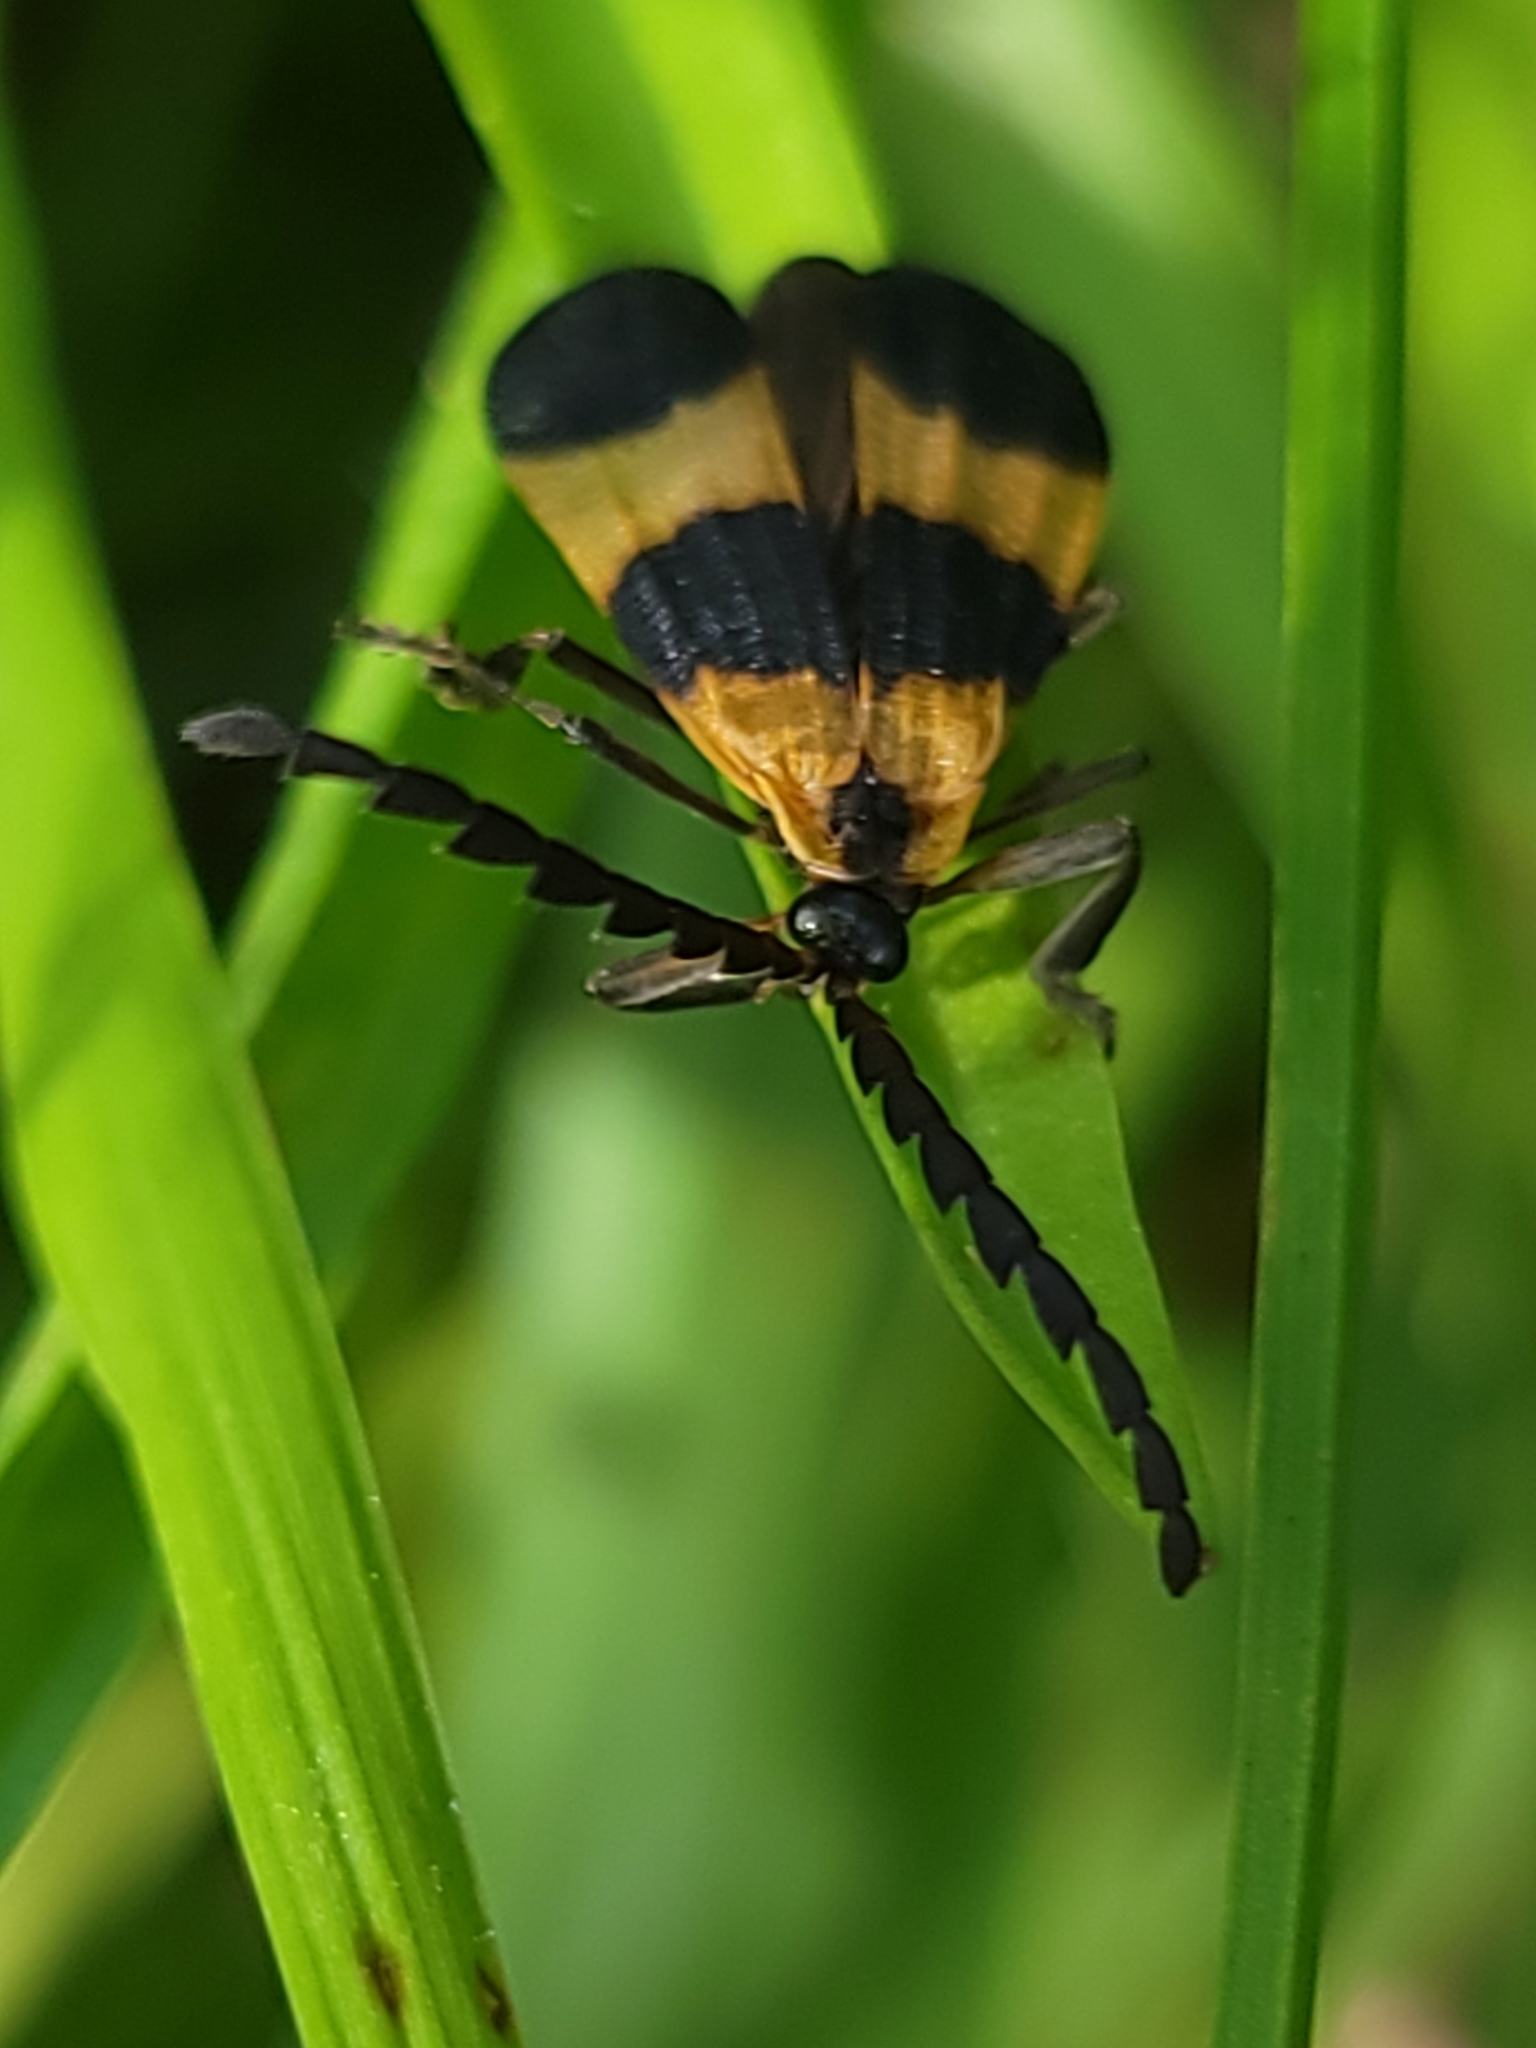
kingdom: Animalia
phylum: Arthropoda
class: Insecta
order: Coleoptera
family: Lycidae
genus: Calopteron
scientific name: Calopteron reticulatum
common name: Banded net-winged beetle
